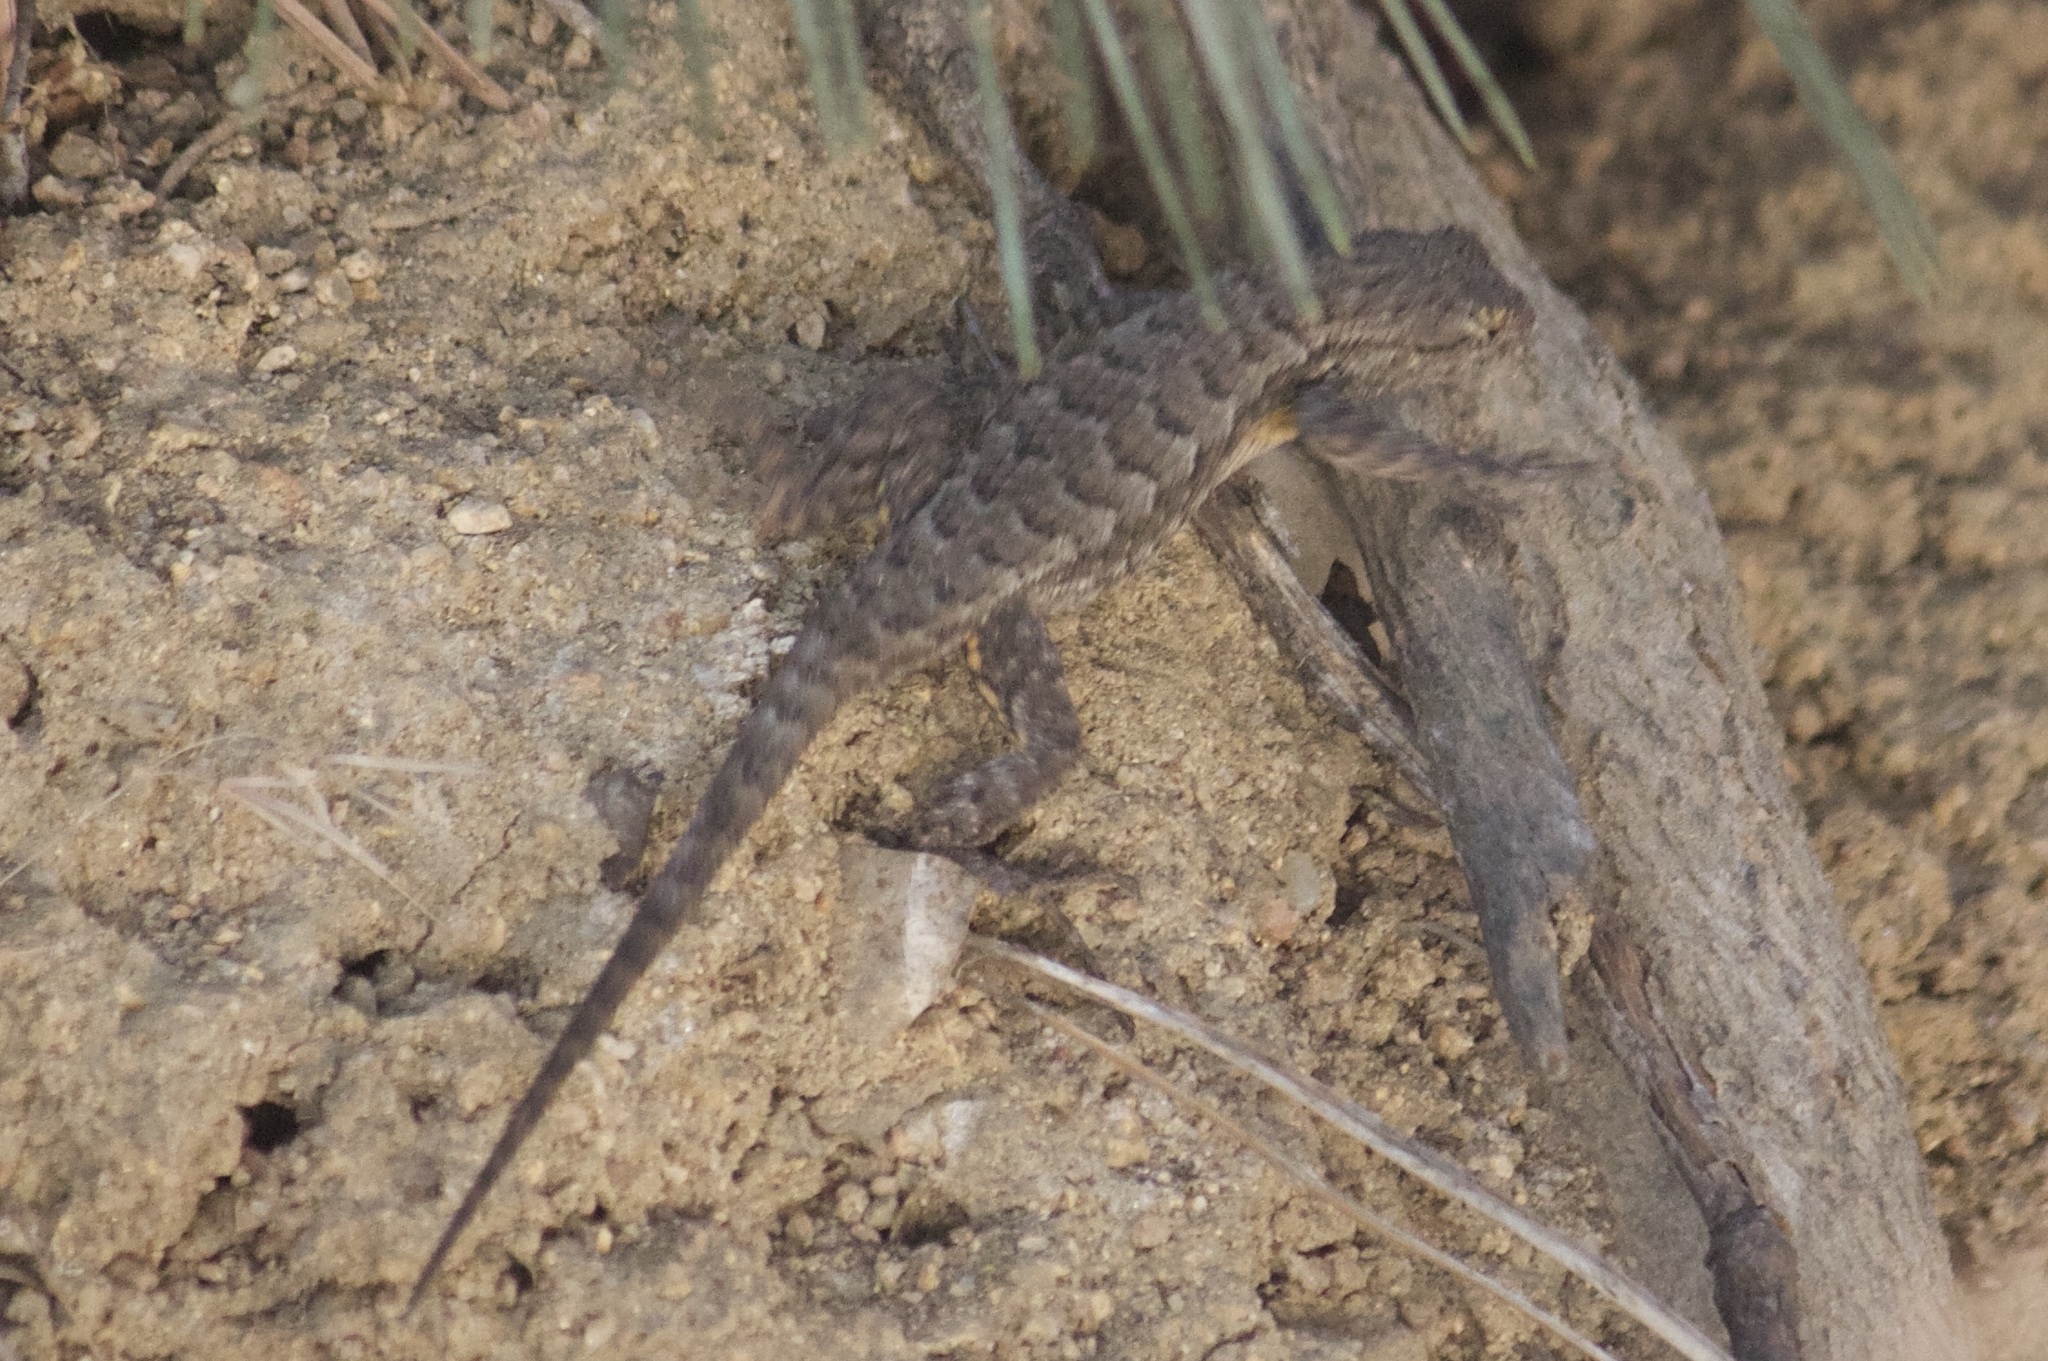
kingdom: Animalia
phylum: Chordata
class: Squamata
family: Phrynosomatidae
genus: Sceloporus
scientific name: Sceloporus occidentalis
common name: Western fence lizard
